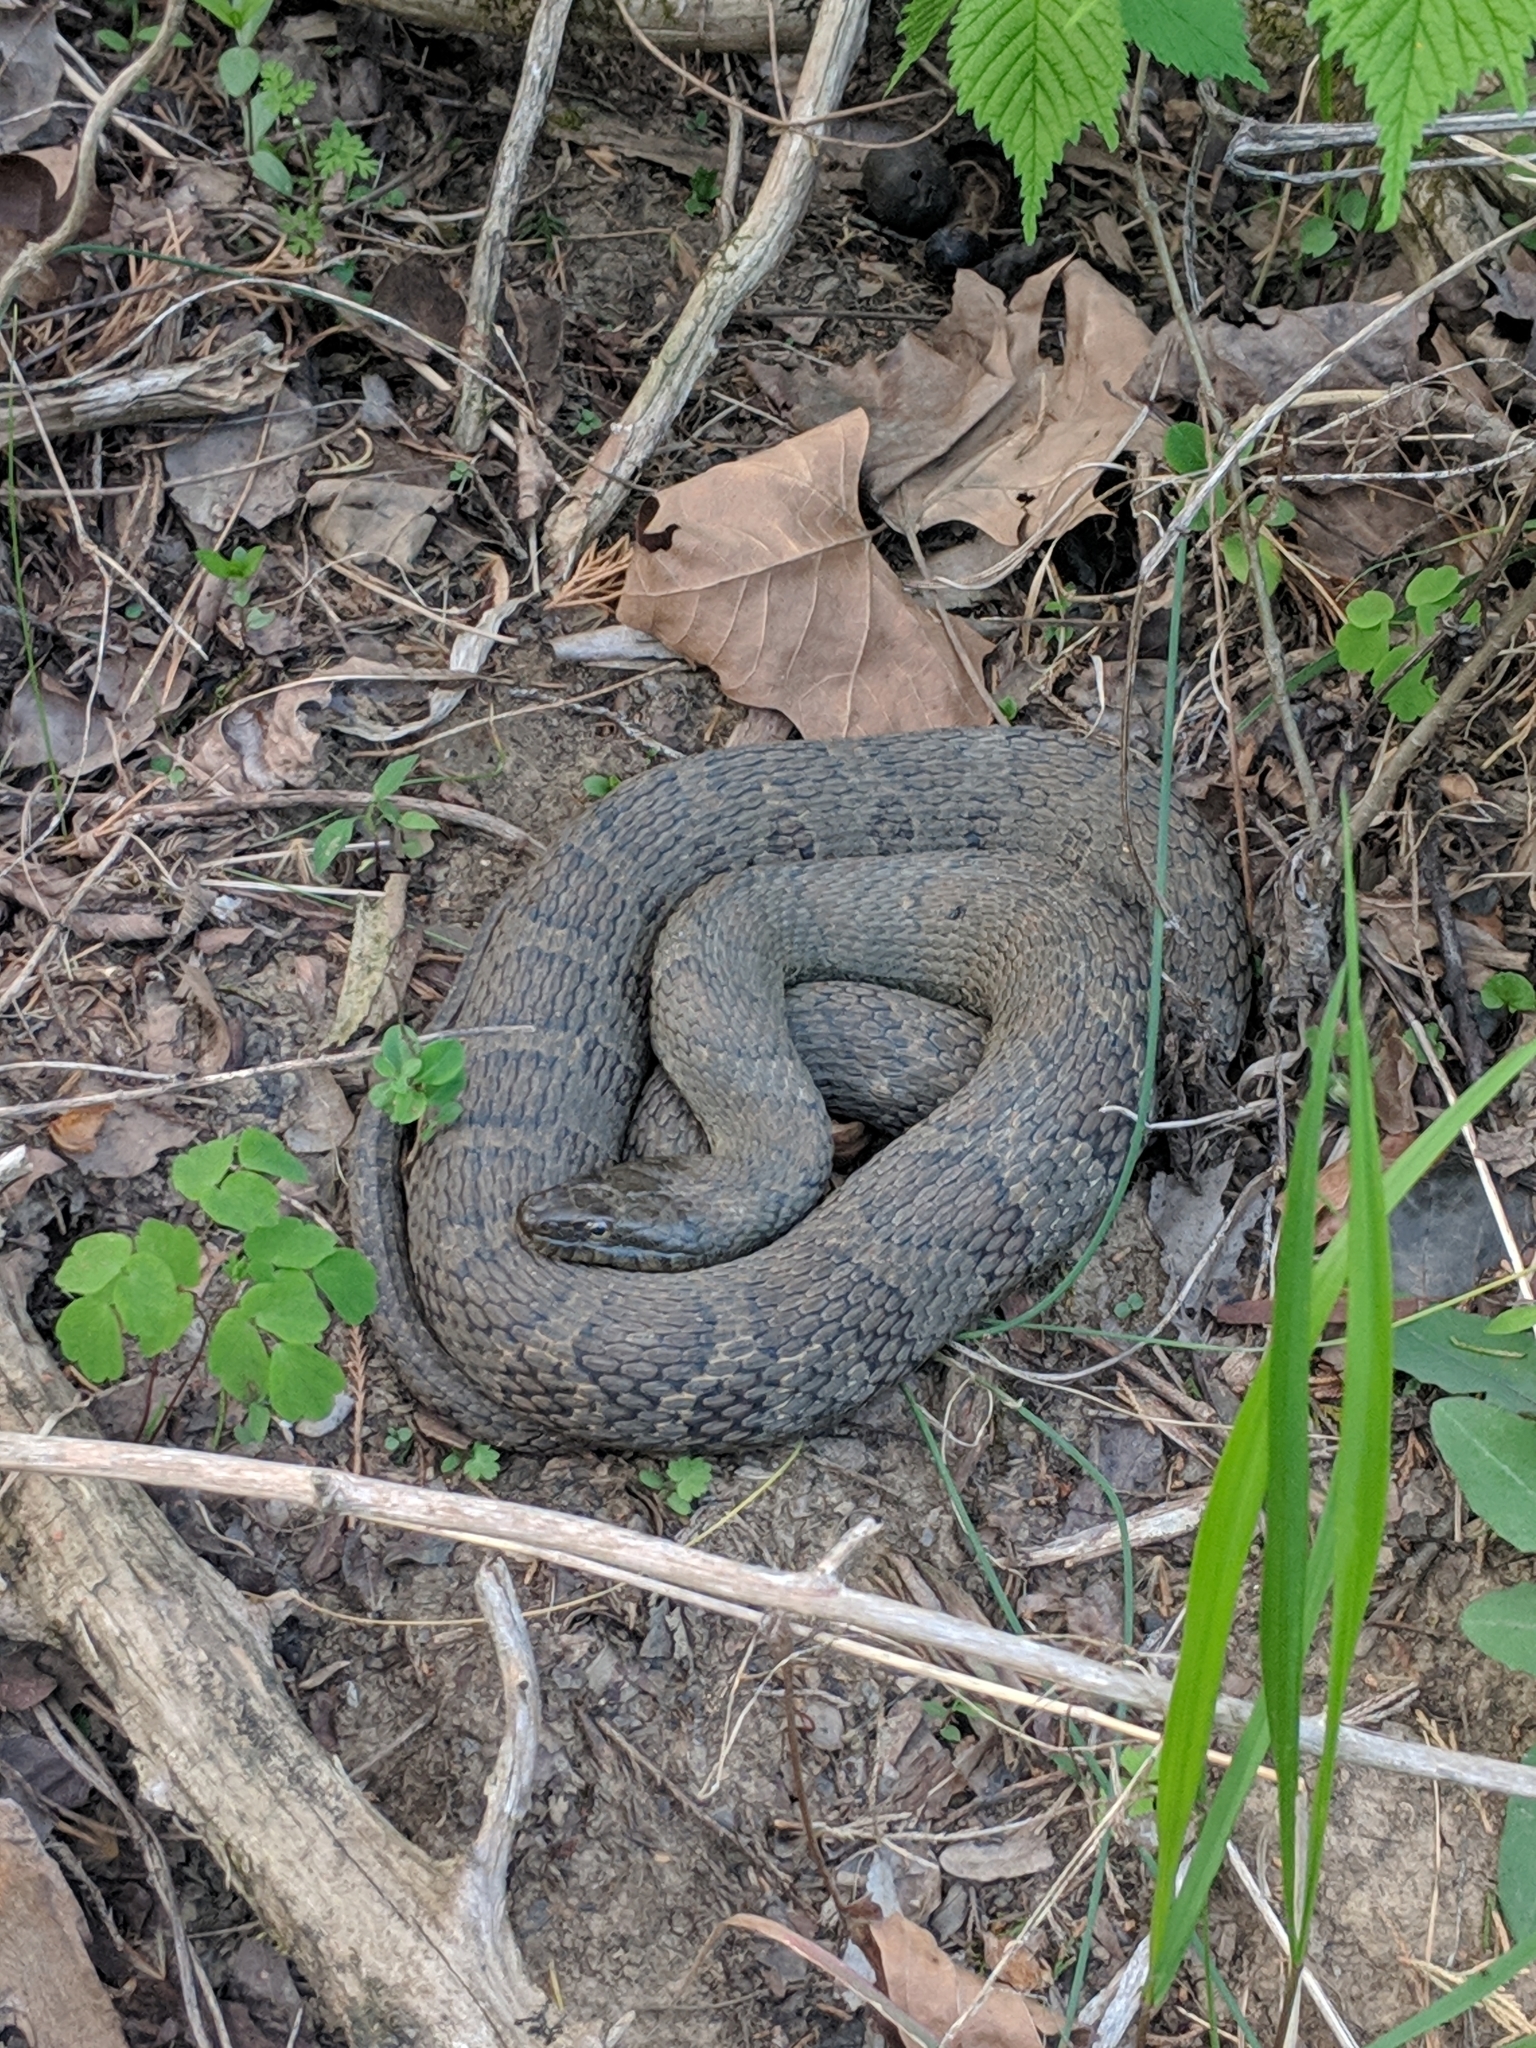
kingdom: Animalia
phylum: Chordata
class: Squamata
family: Colubridae
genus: Nerodia
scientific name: Nerodia sipedon
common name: Northern water snake
